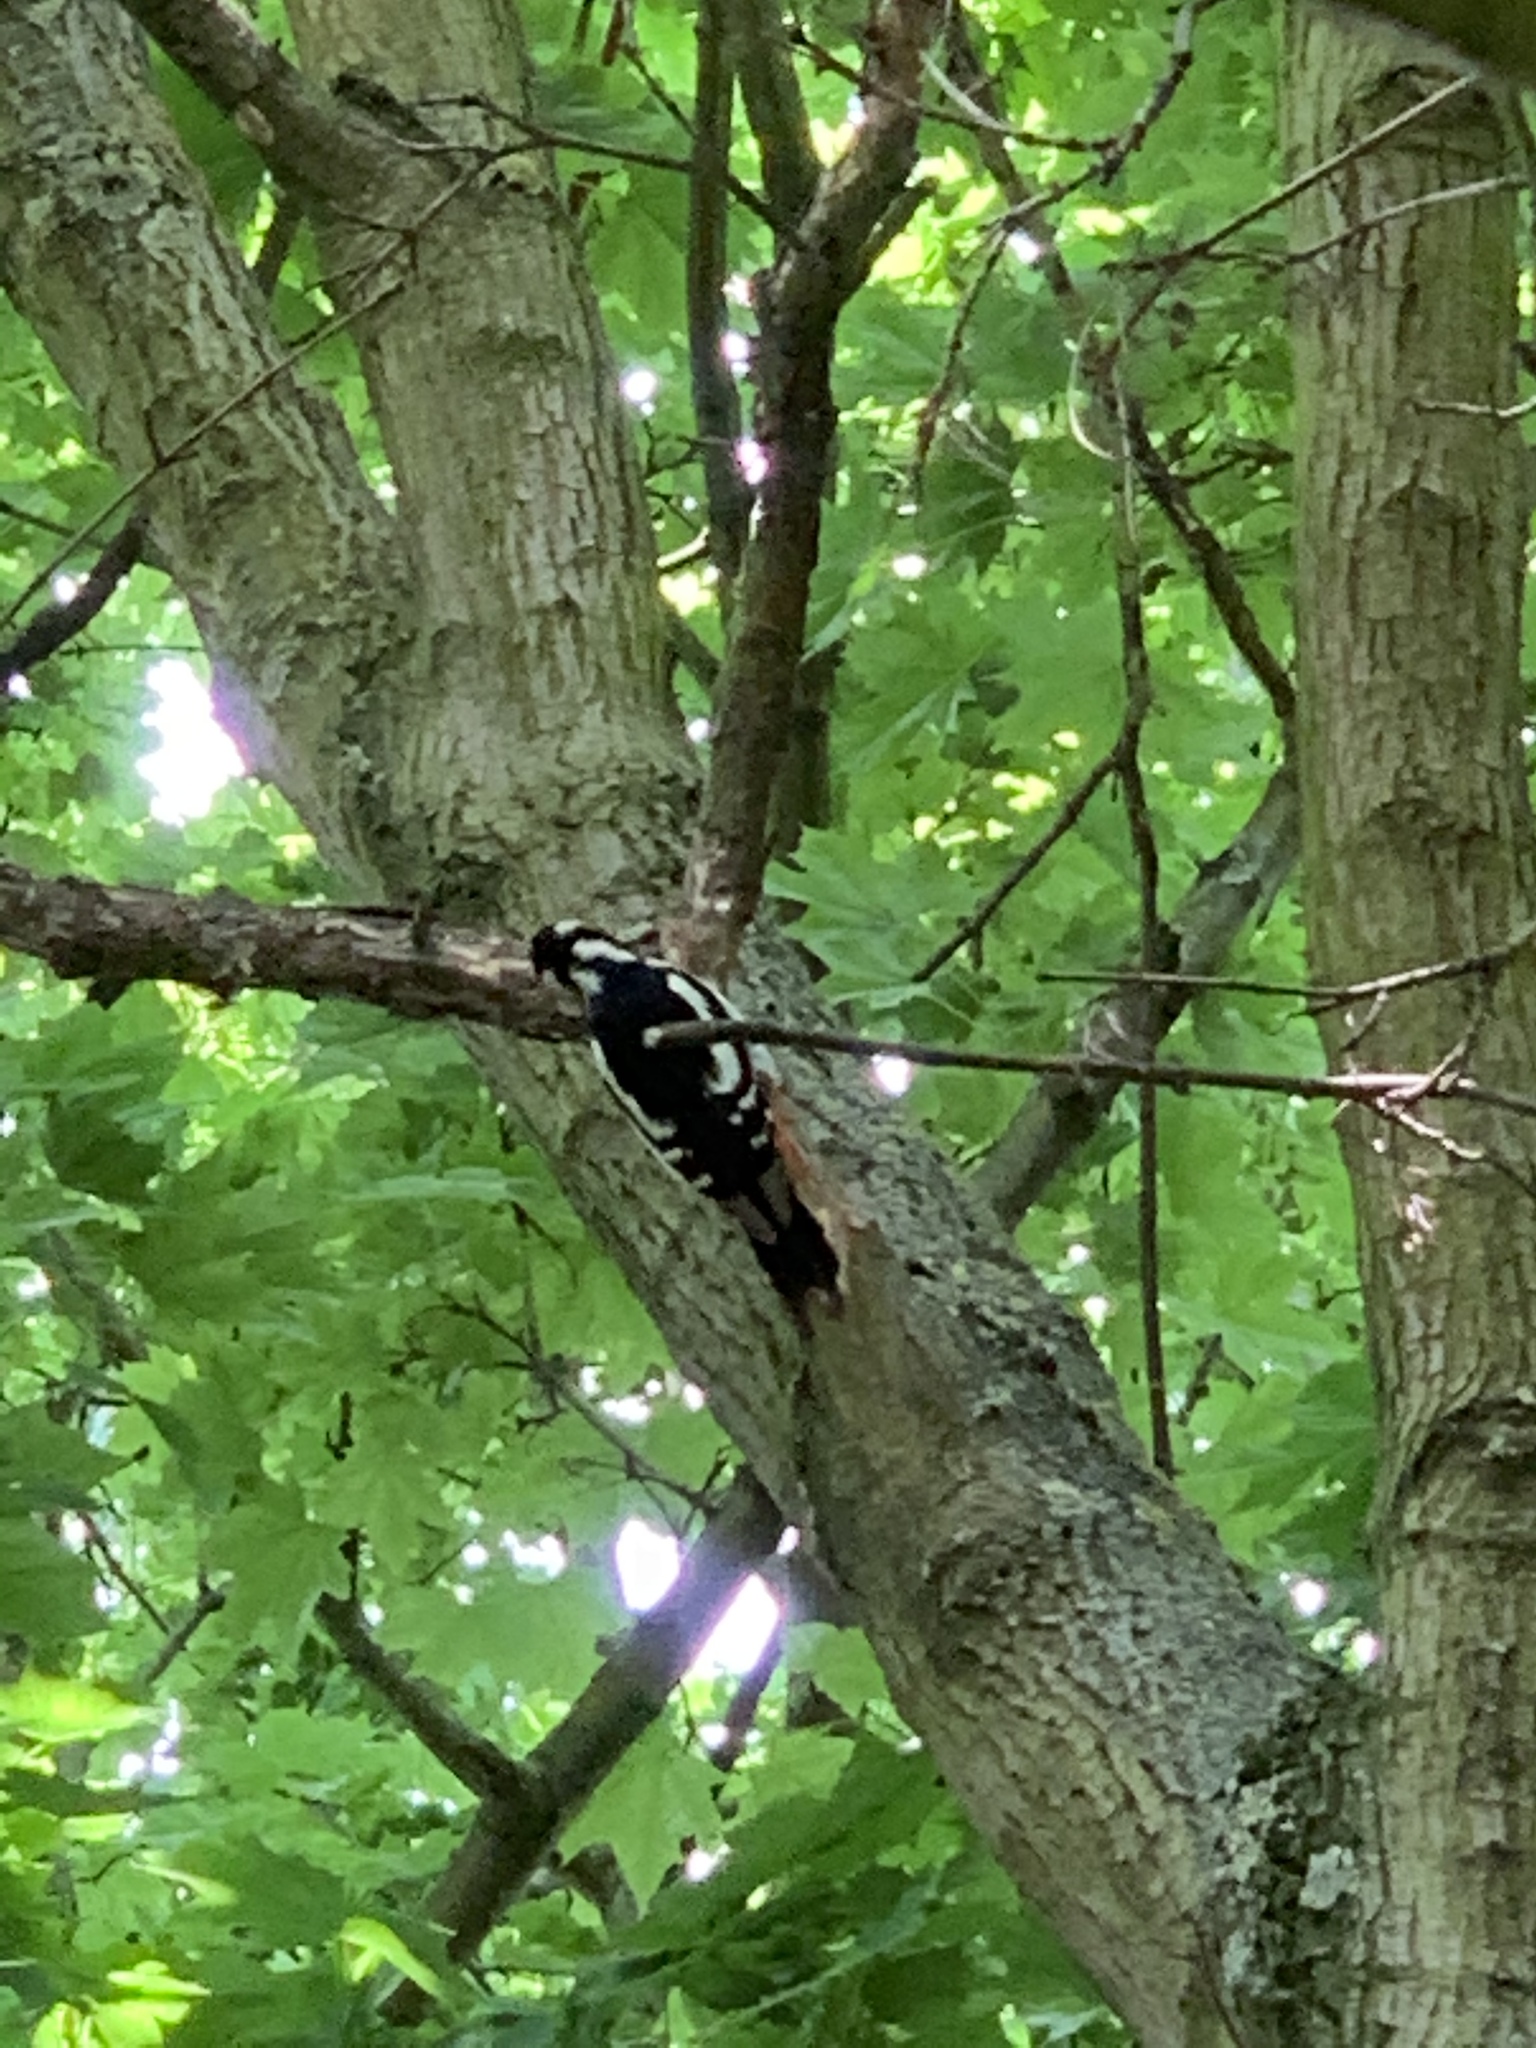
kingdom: Animalia
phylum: Chordata
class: Aves
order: Piciformes
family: Picidae
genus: Dendrocopos
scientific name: Dendrocopos major
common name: Great spotted woodpecker
